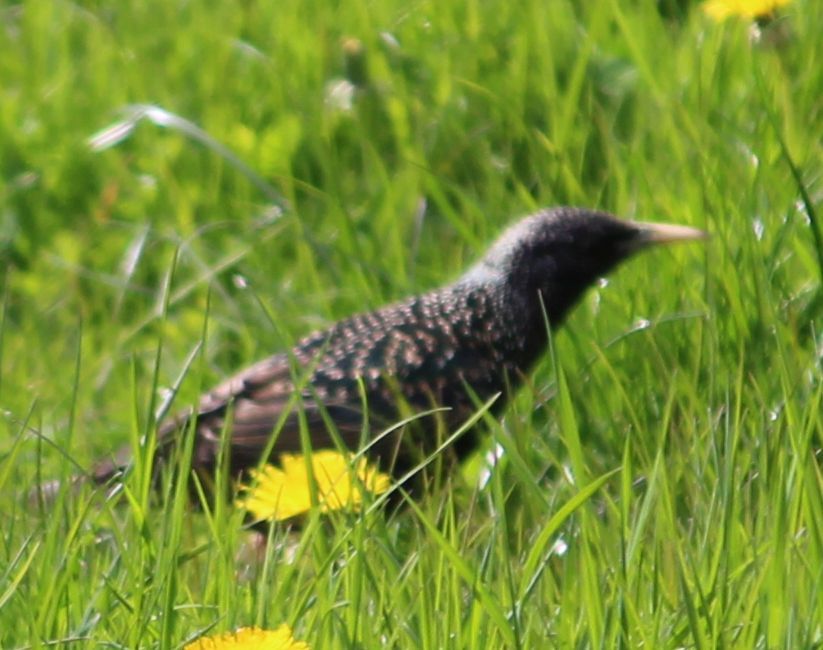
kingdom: Animalia
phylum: Chordata
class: Aves
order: Passeriformes
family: Sturnidae
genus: Sturnus
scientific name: Sturnus vulgaris
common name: Common starling
